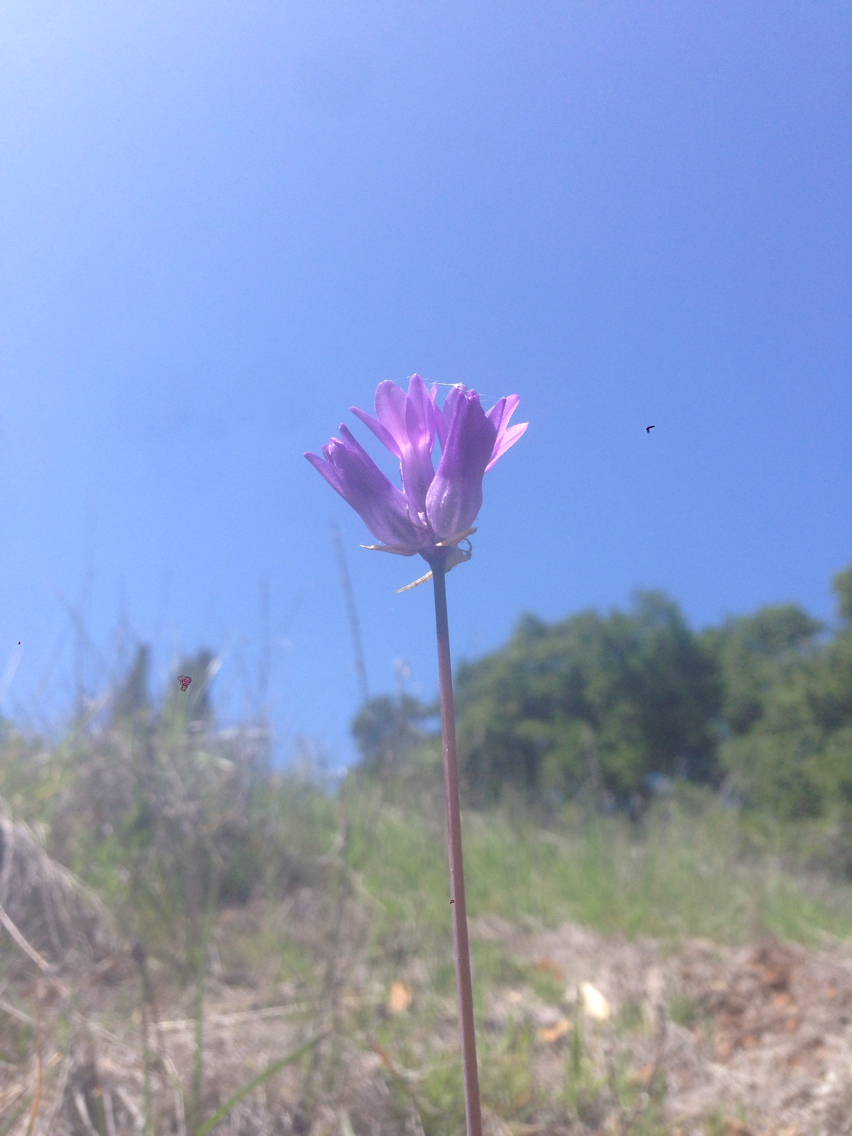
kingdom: Plantae
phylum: Tracheophyta
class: Liliopsida
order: Asparagales
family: Asparagaceae
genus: Dipterostemon
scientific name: Dipterostemon capitatus
